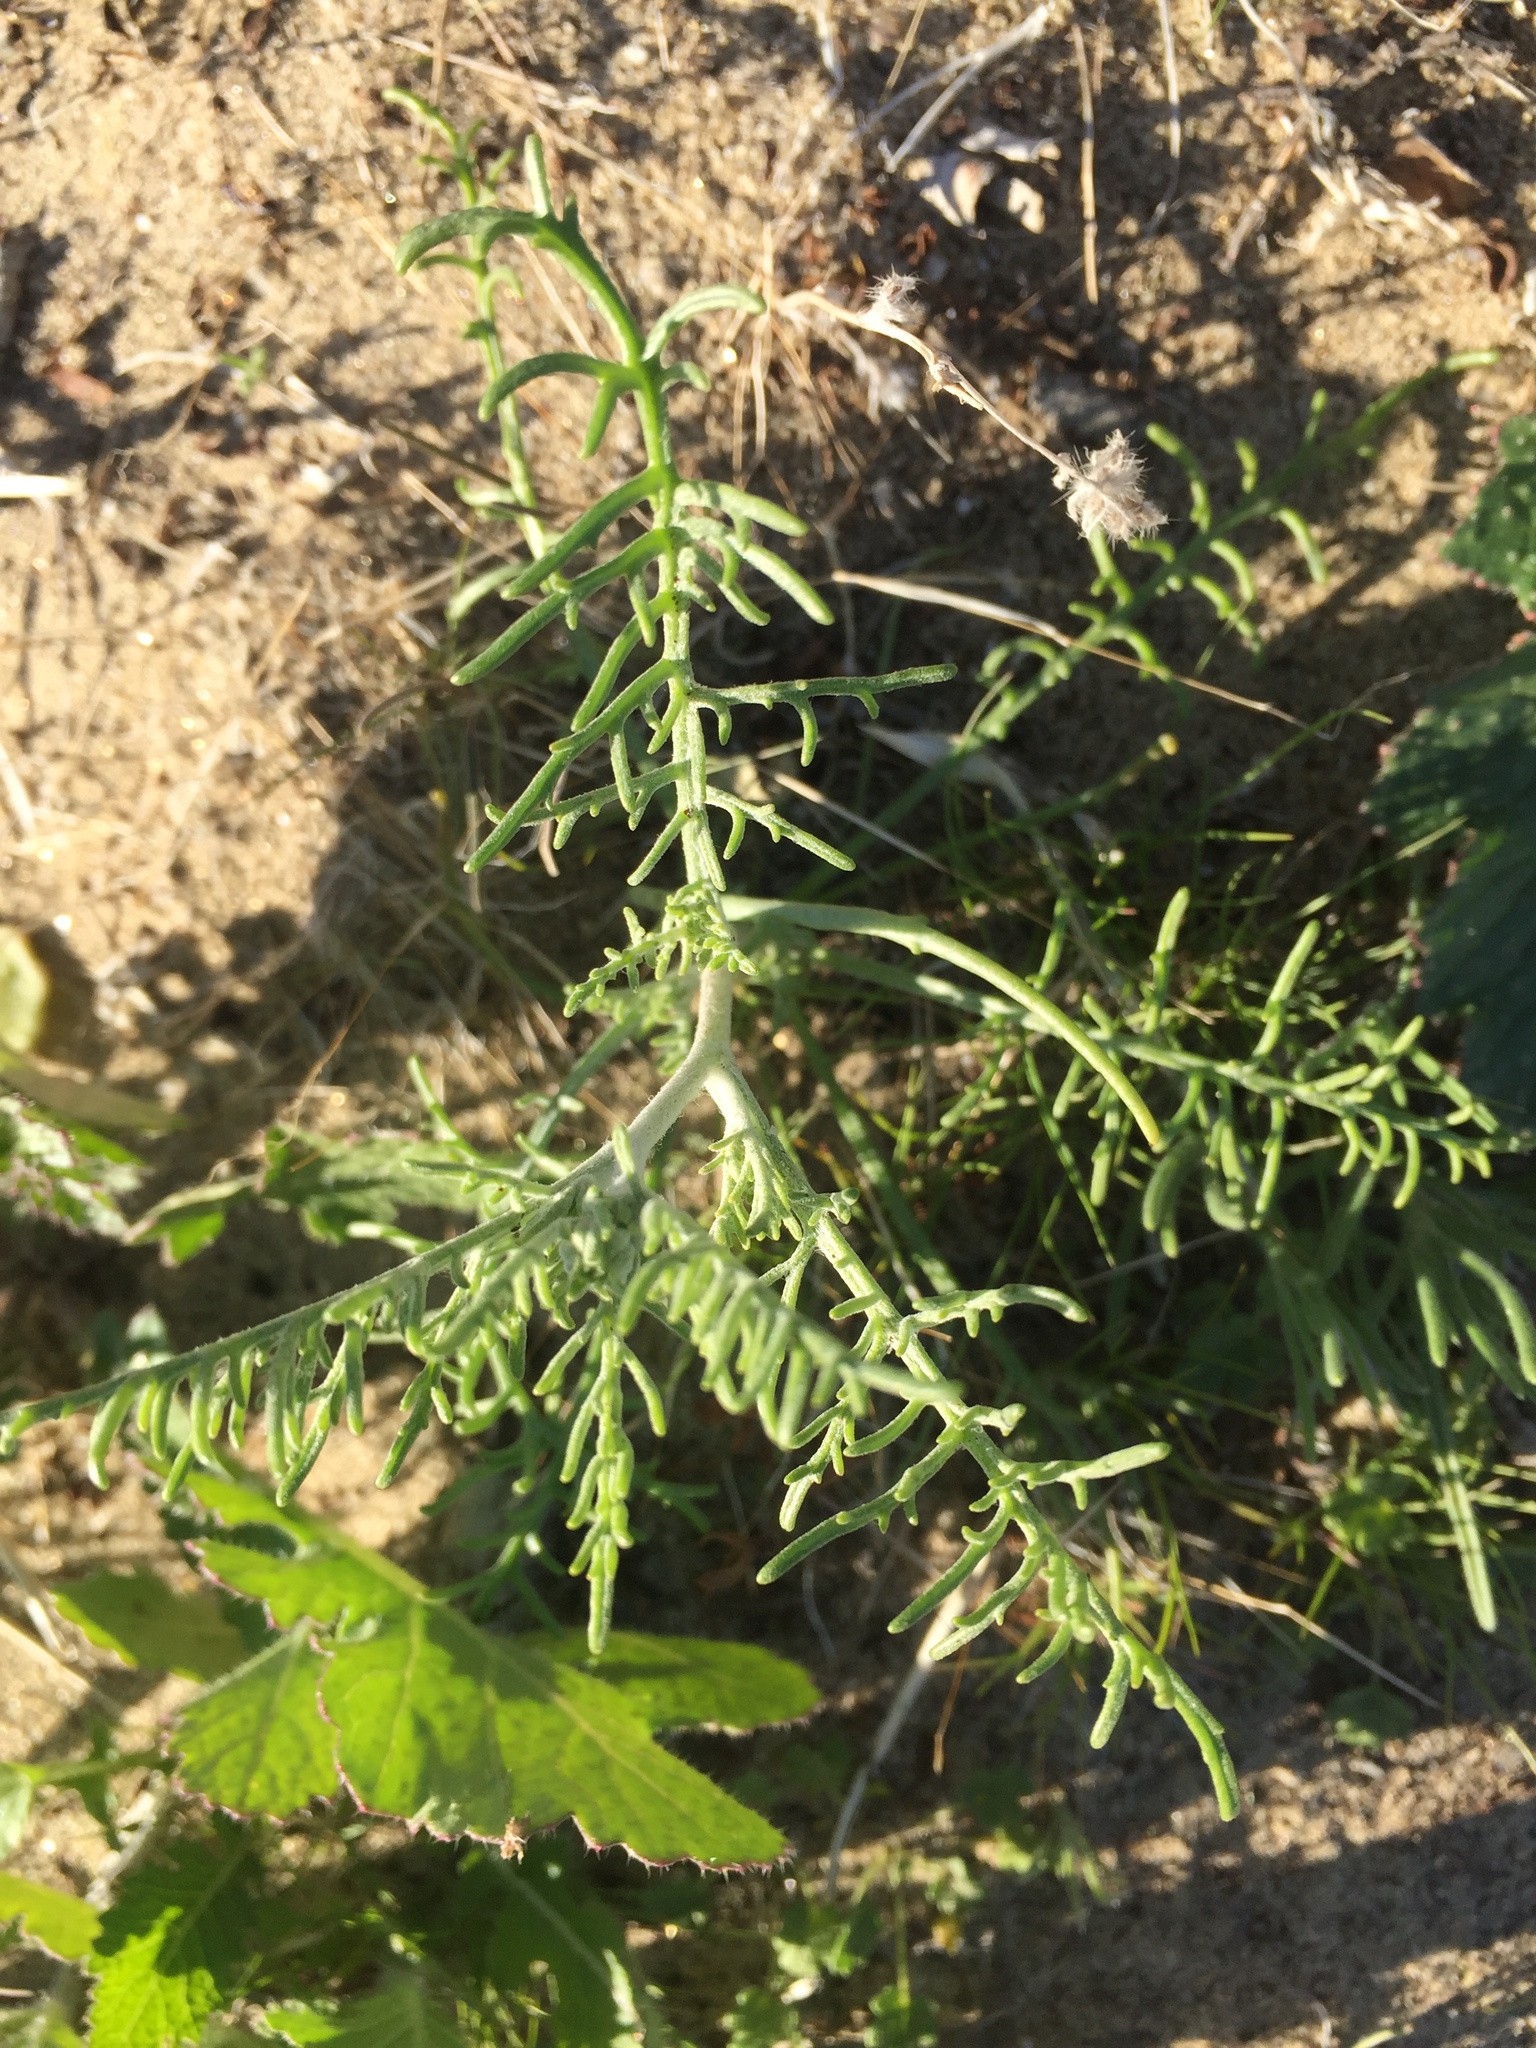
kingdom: Plantae
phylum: Tracheophyta
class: Magnoliopsida
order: Asterales
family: Asteraceae
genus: Chaenactis
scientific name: Chaenactis stevioides
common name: Desert pincushion
